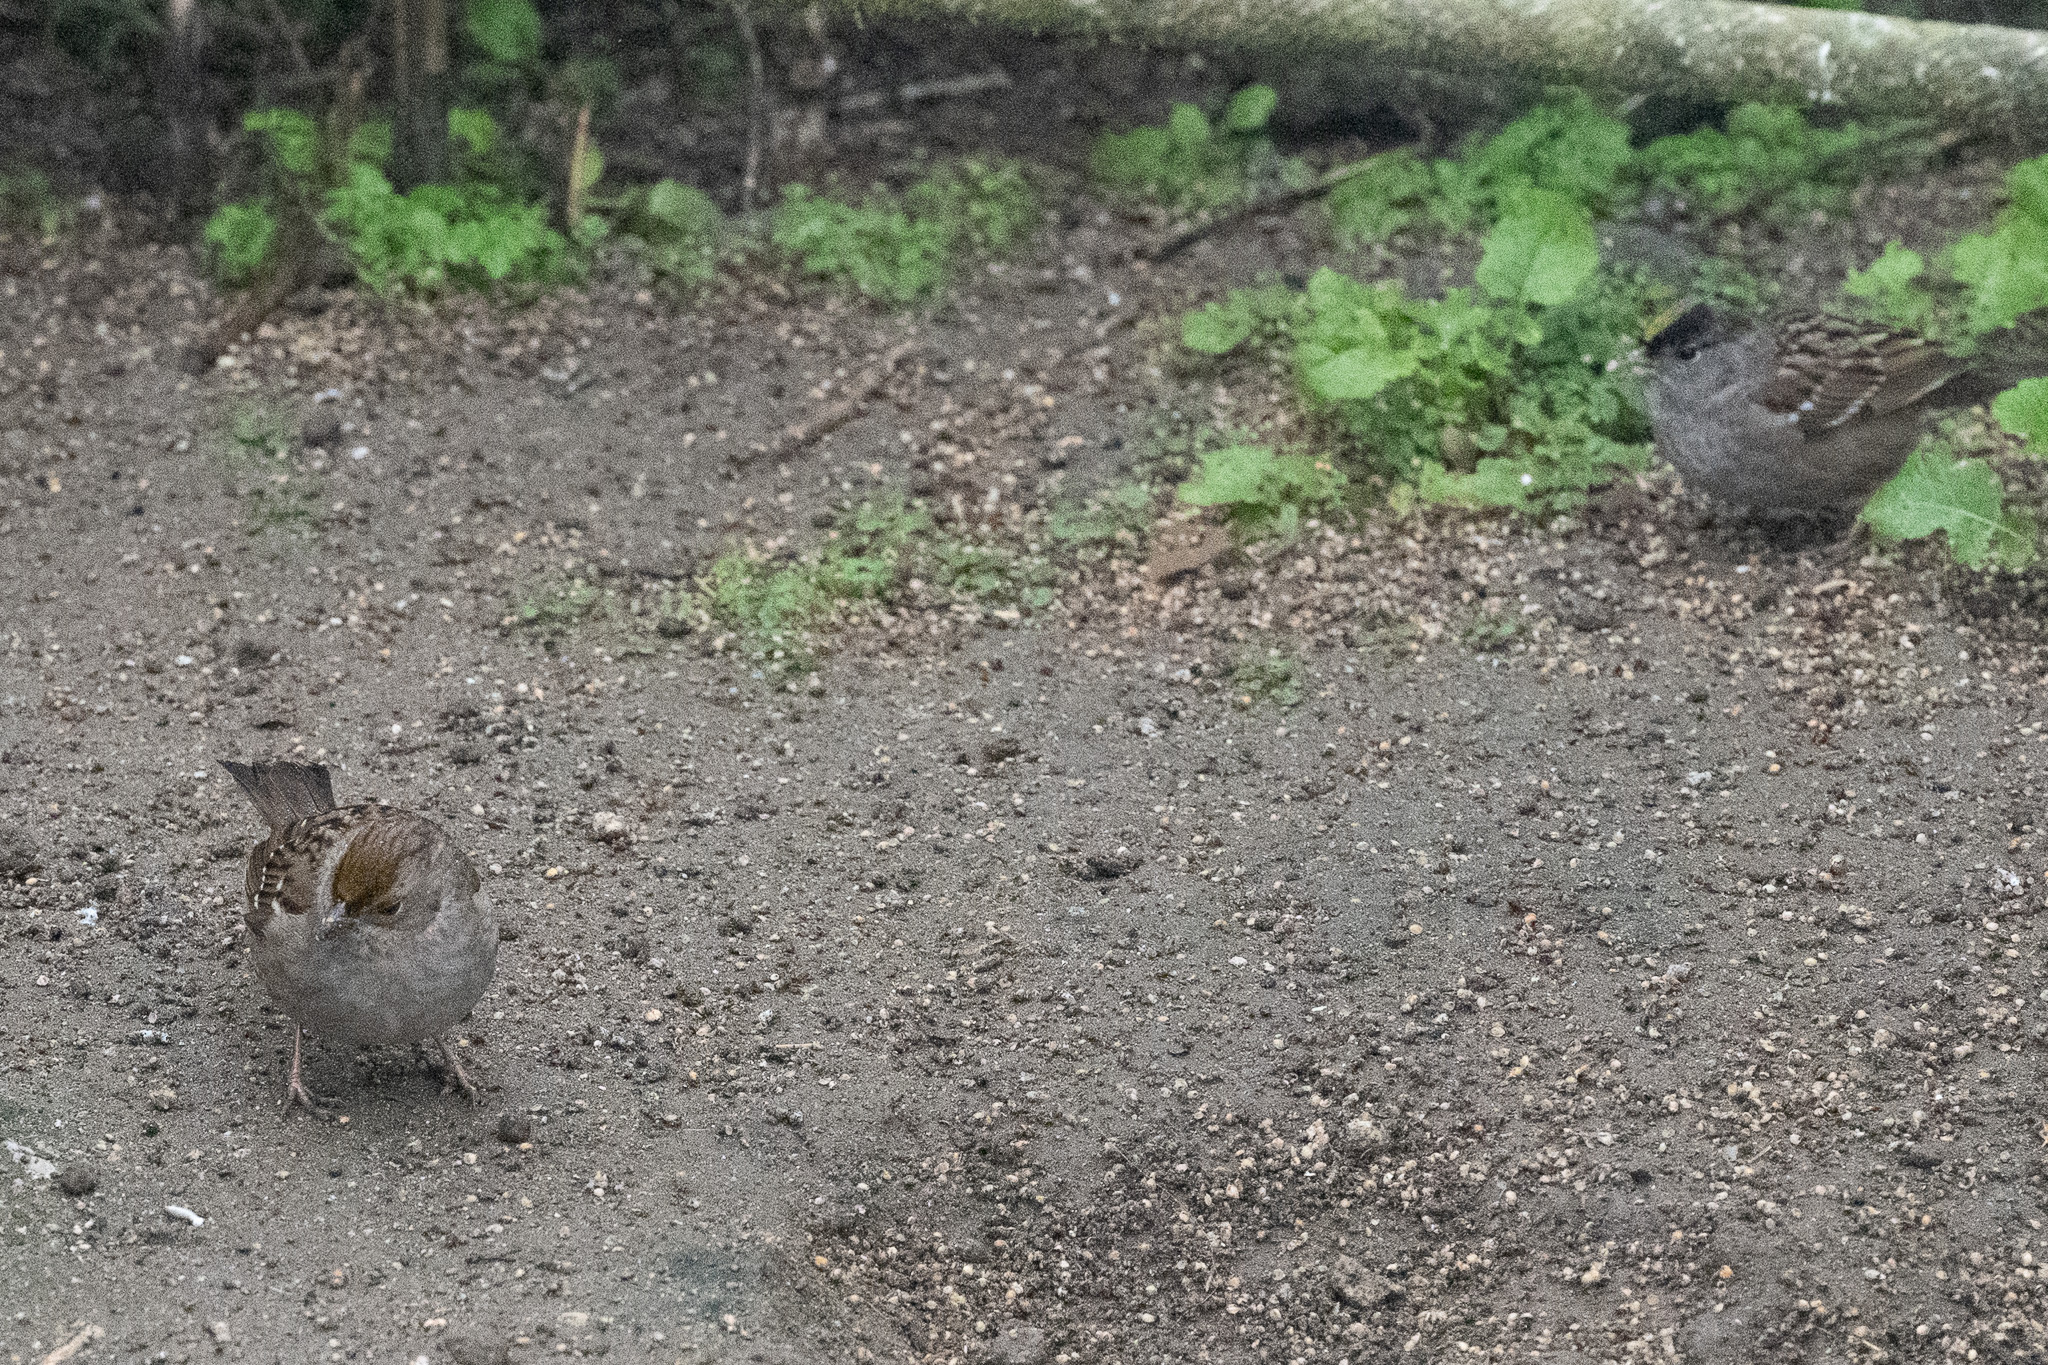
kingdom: Animalia
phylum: Chordata
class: Aves
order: Passeriformes
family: Passerellidae
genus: Zonotrichia
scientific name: Zonotrichia atricapilla
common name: Golden-crowned sparrow
